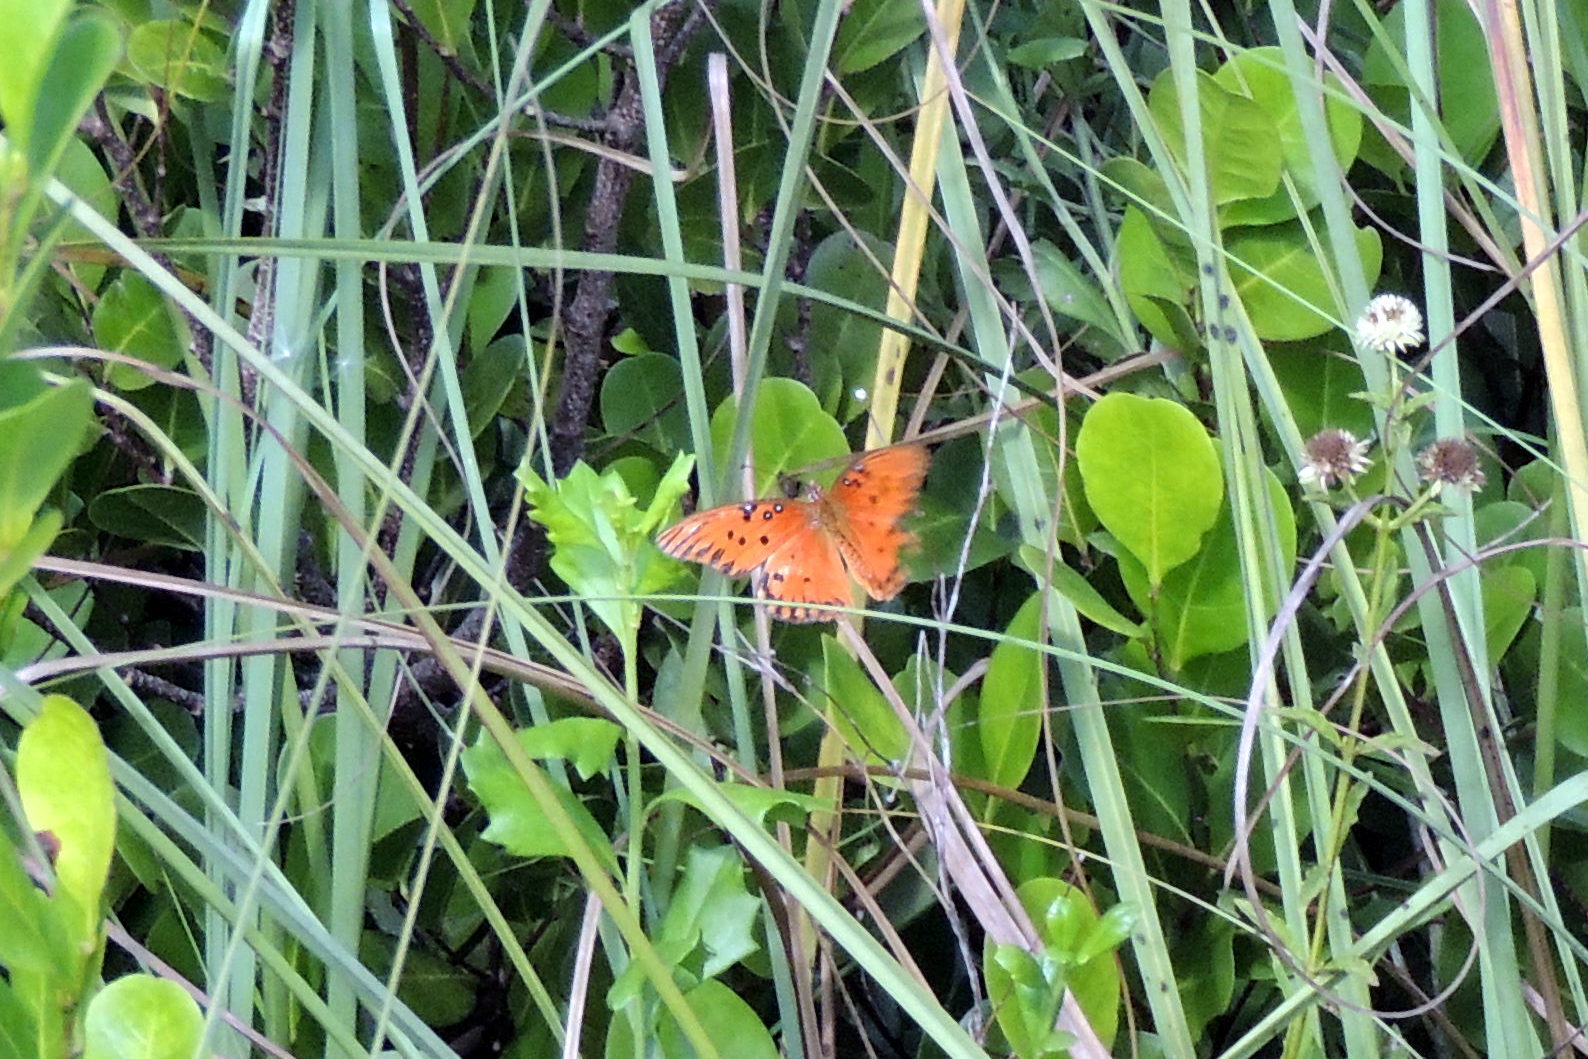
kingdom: Animalia
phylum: Arthropoda
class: Insecta
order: Lepidoptera
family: Nymphalidae
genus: Dione
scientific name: Dione vanillae
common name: Gulf fritillary
